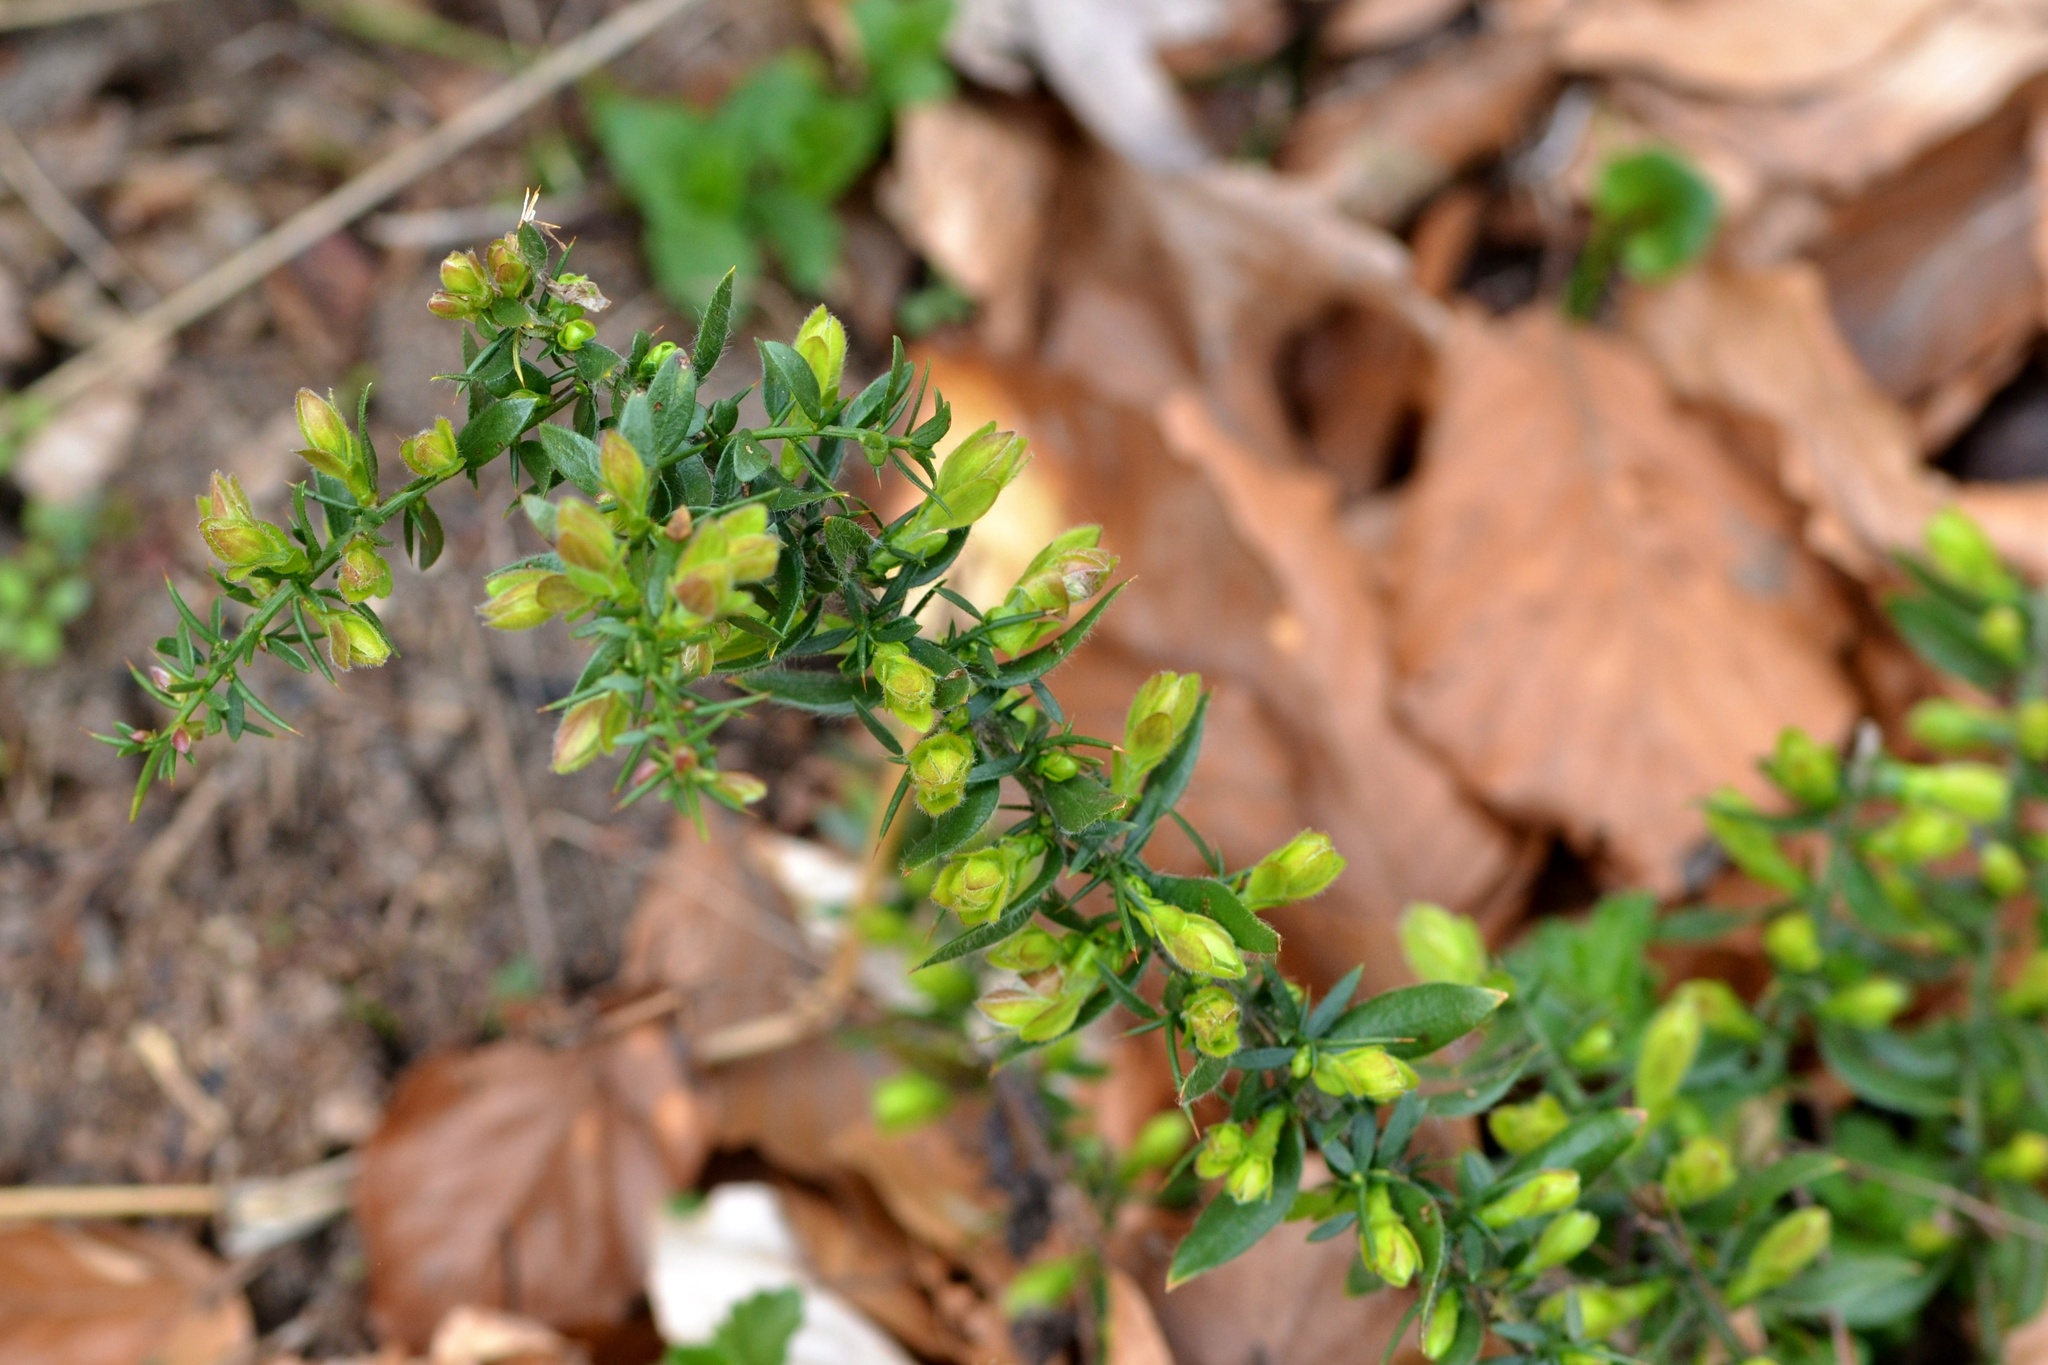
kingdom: Plantae
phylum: Tracheophyta
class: Magnoliopsida
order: Fabales
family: Fabaceae
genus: Genista
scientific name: Genista germanica
